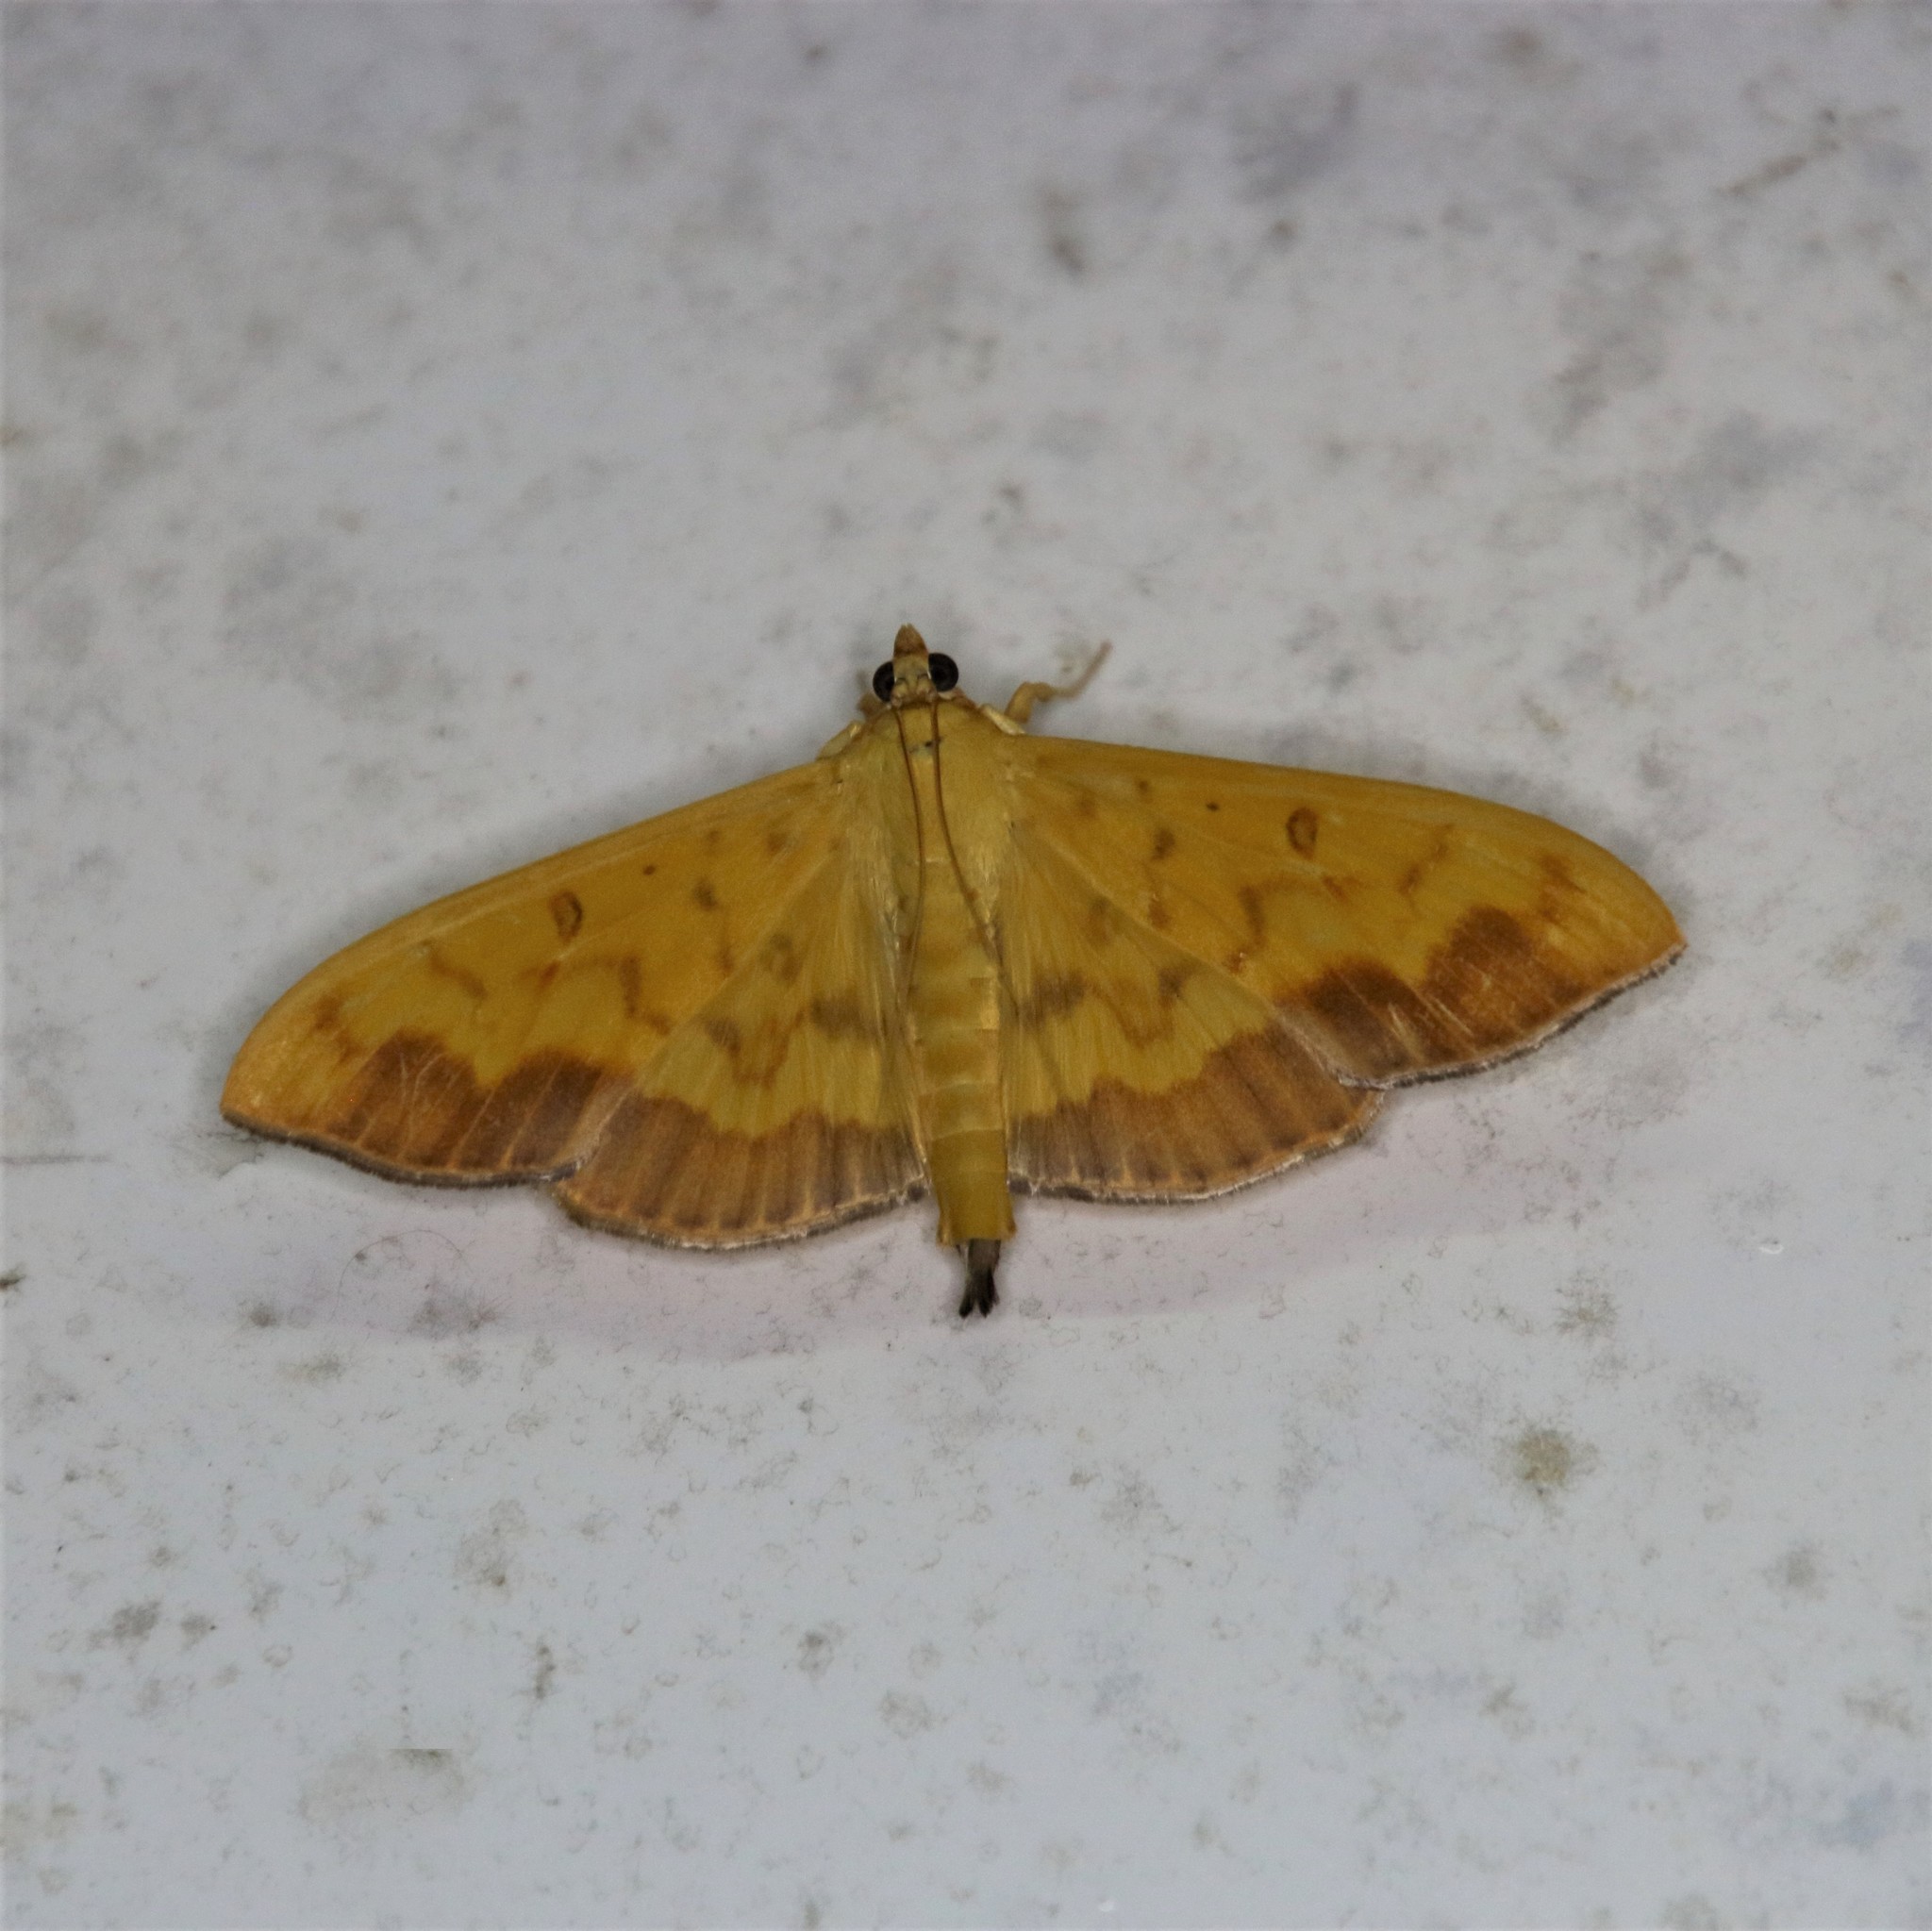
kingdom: Animalia
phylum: Arthropoda
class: Insecta
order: Lepidoptera
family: Crambidae
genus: Botyodes
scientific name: Botyodes asialis
